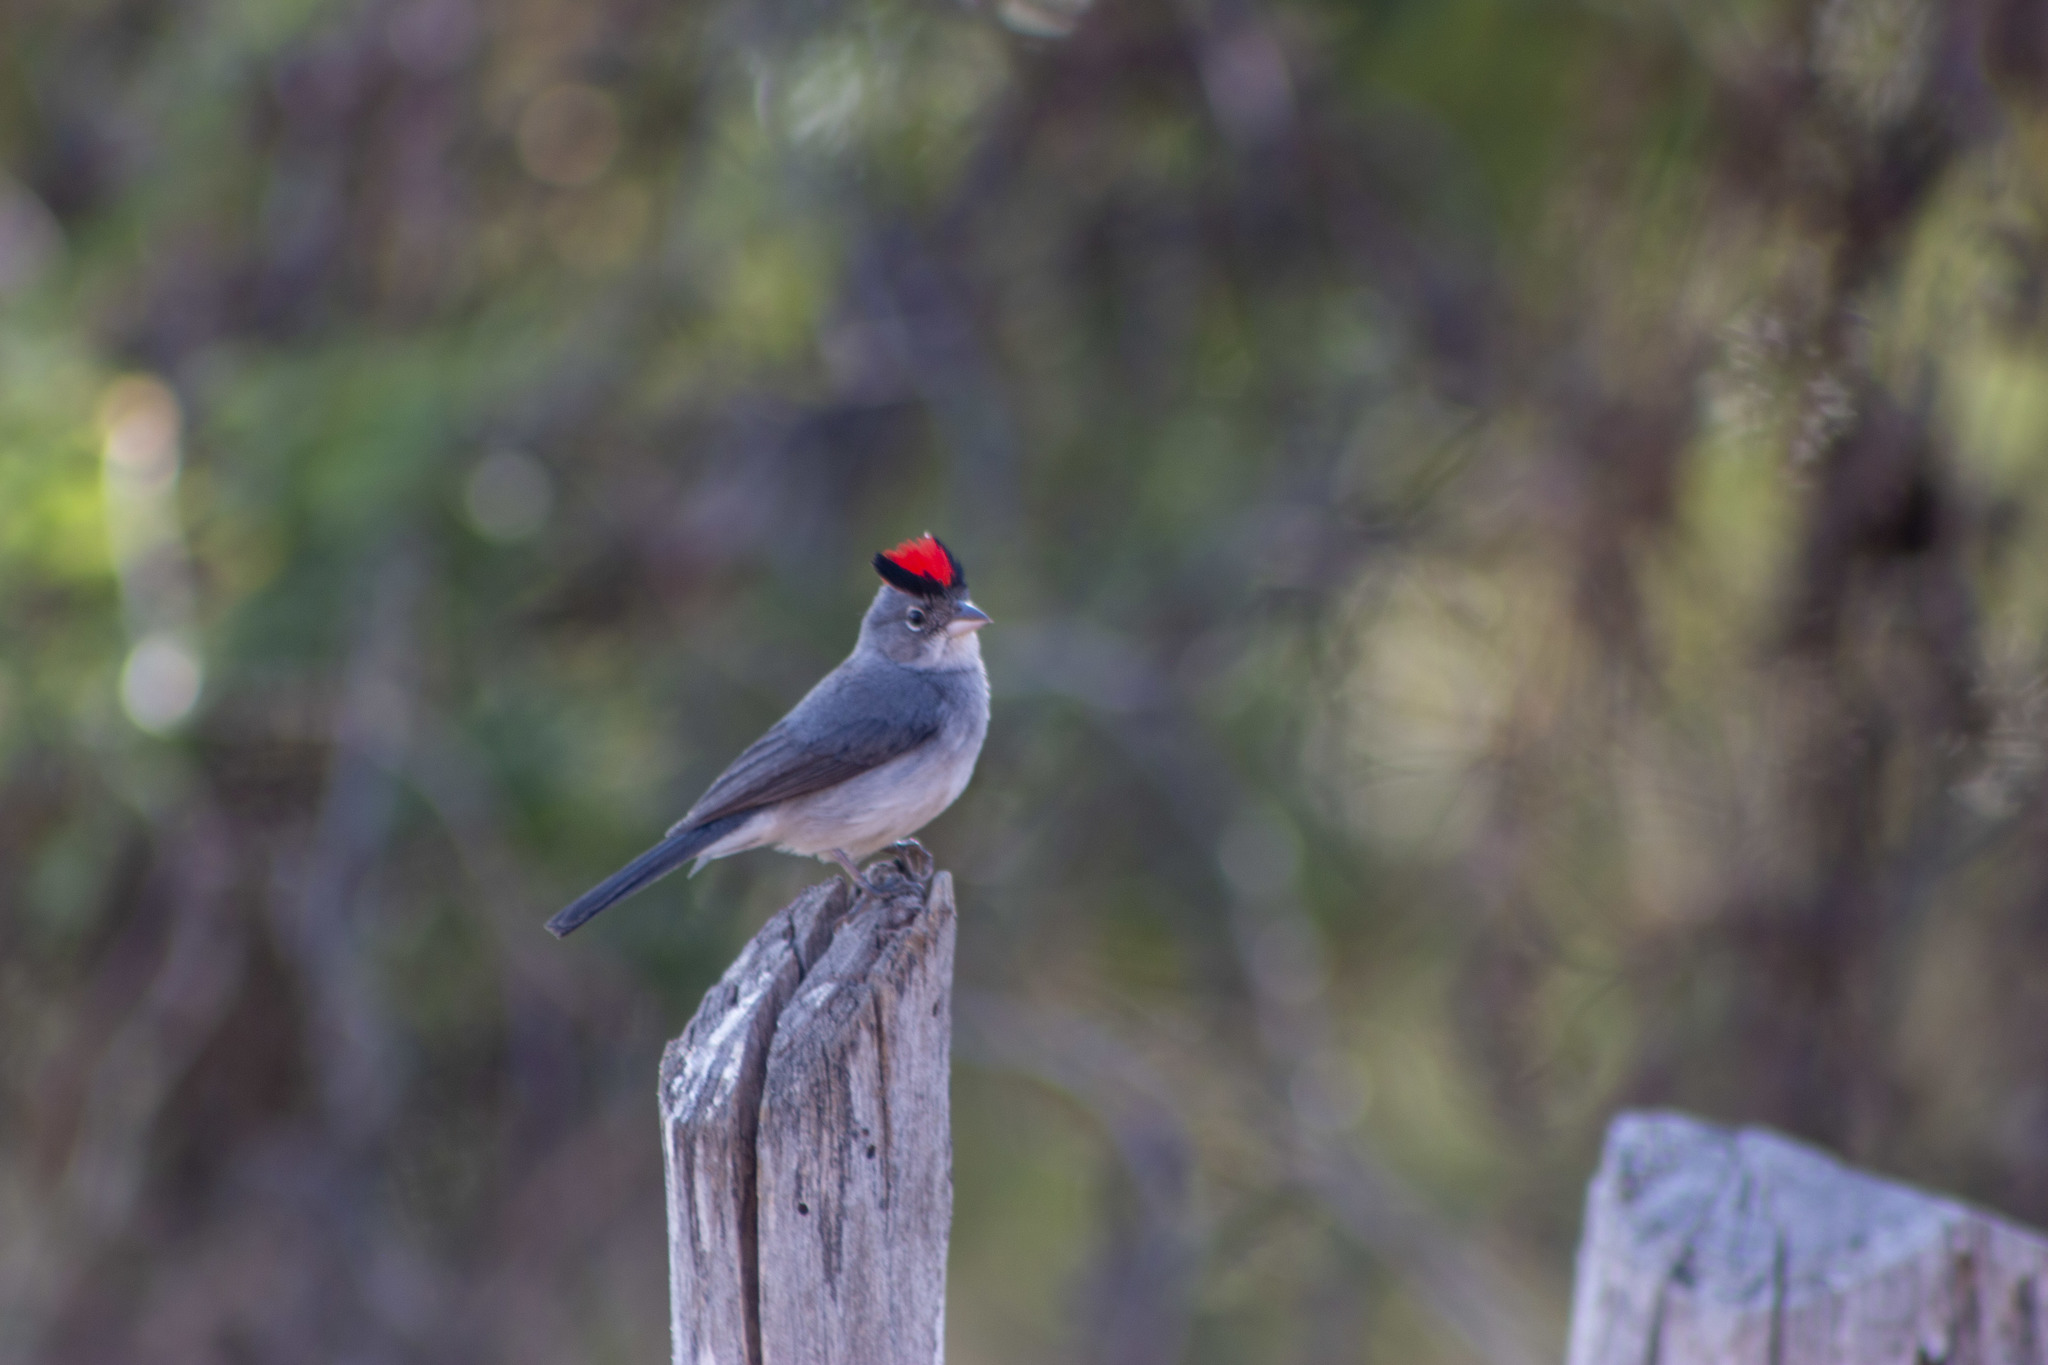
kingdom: Animalia
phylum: Chordata
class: Aves
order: Passeriformes
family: Thraupidae
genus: Coryphospingus
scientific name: Coryphospingus pileatus
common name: Grey pileated finch
